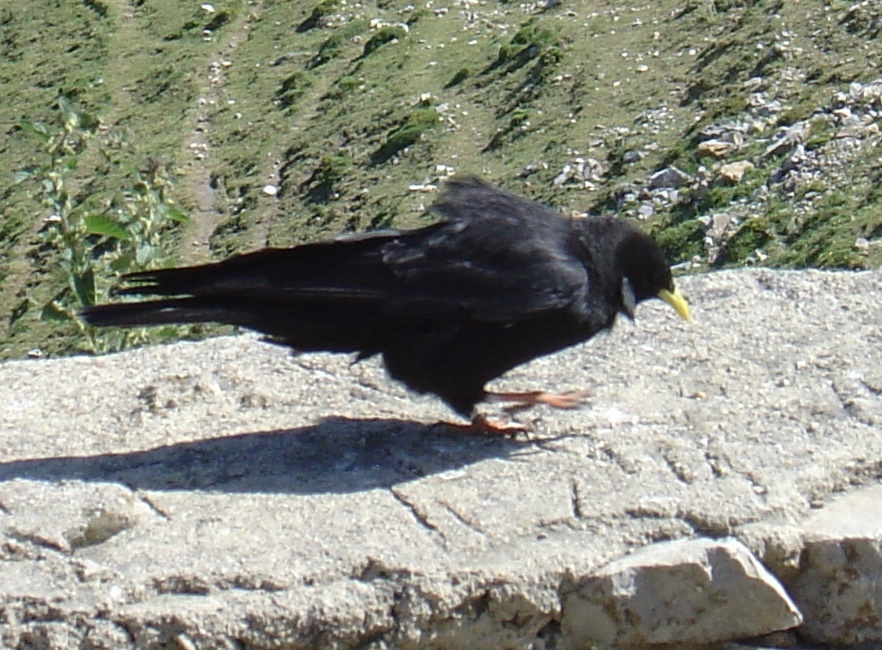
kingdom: Animalia
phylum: Chordata
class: Aves
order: Passeriformes
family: Corvidae
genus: Pyrrhocorax
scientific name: Pyrrhocorax graculus
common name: Alpine chough
